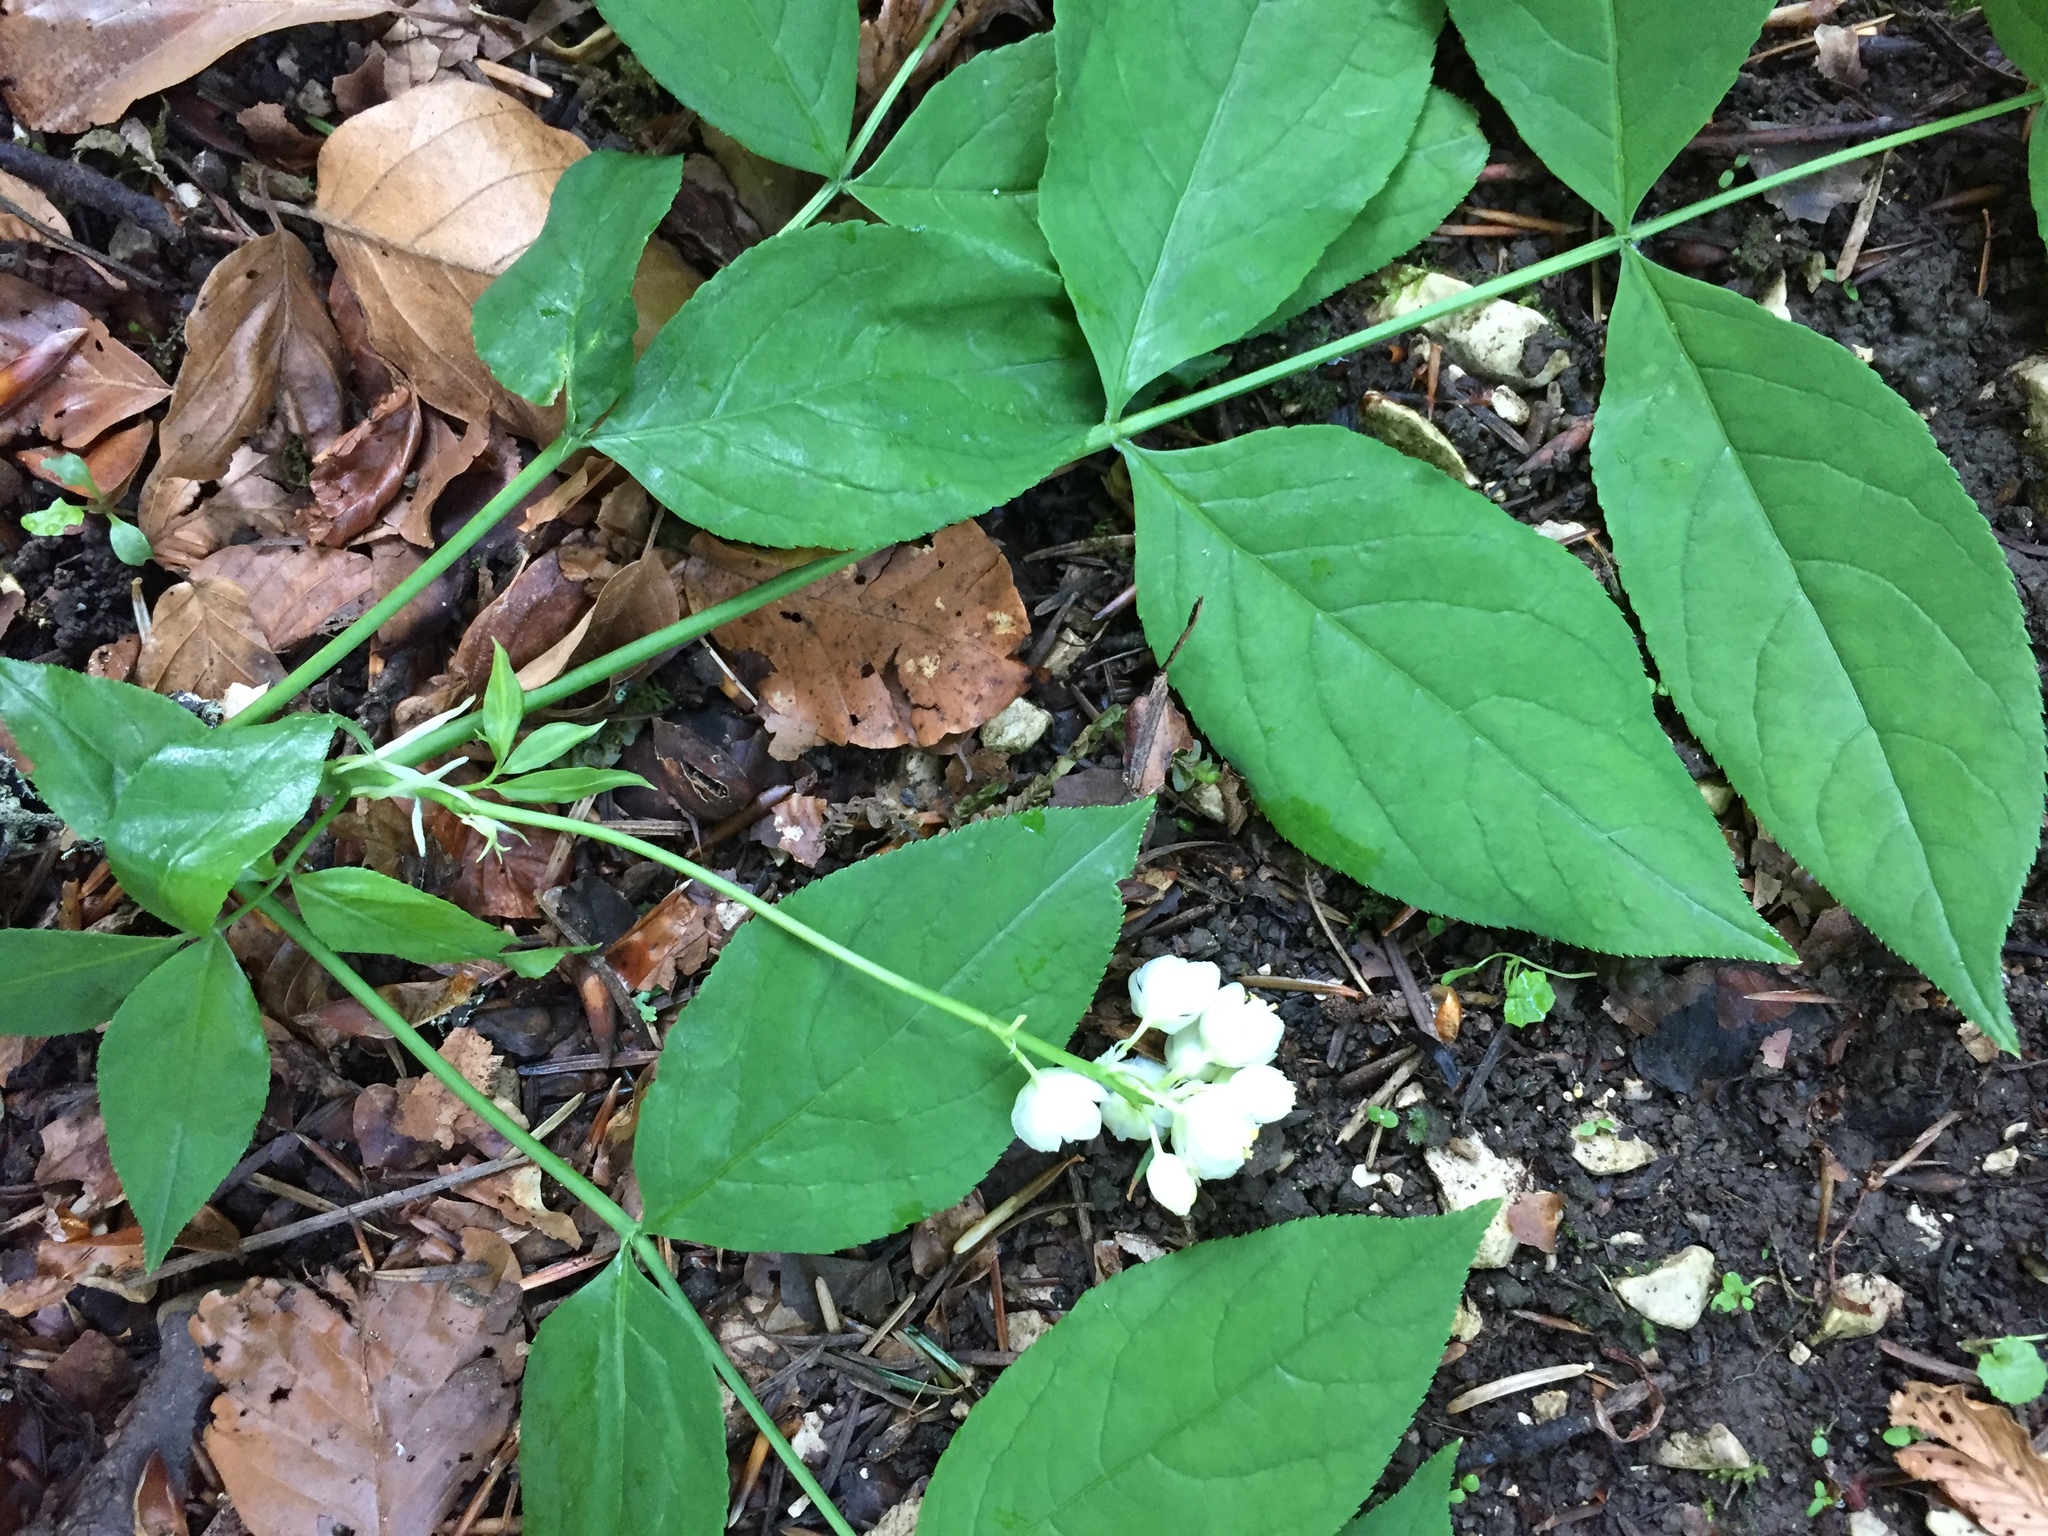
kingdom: Plantae
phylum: Tracheophyta
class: Magnoliopsida
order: Crossosomatales
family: Staphyleaceae
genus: Staphylea
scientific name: Staphylea pinnata
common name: Bladdernut
